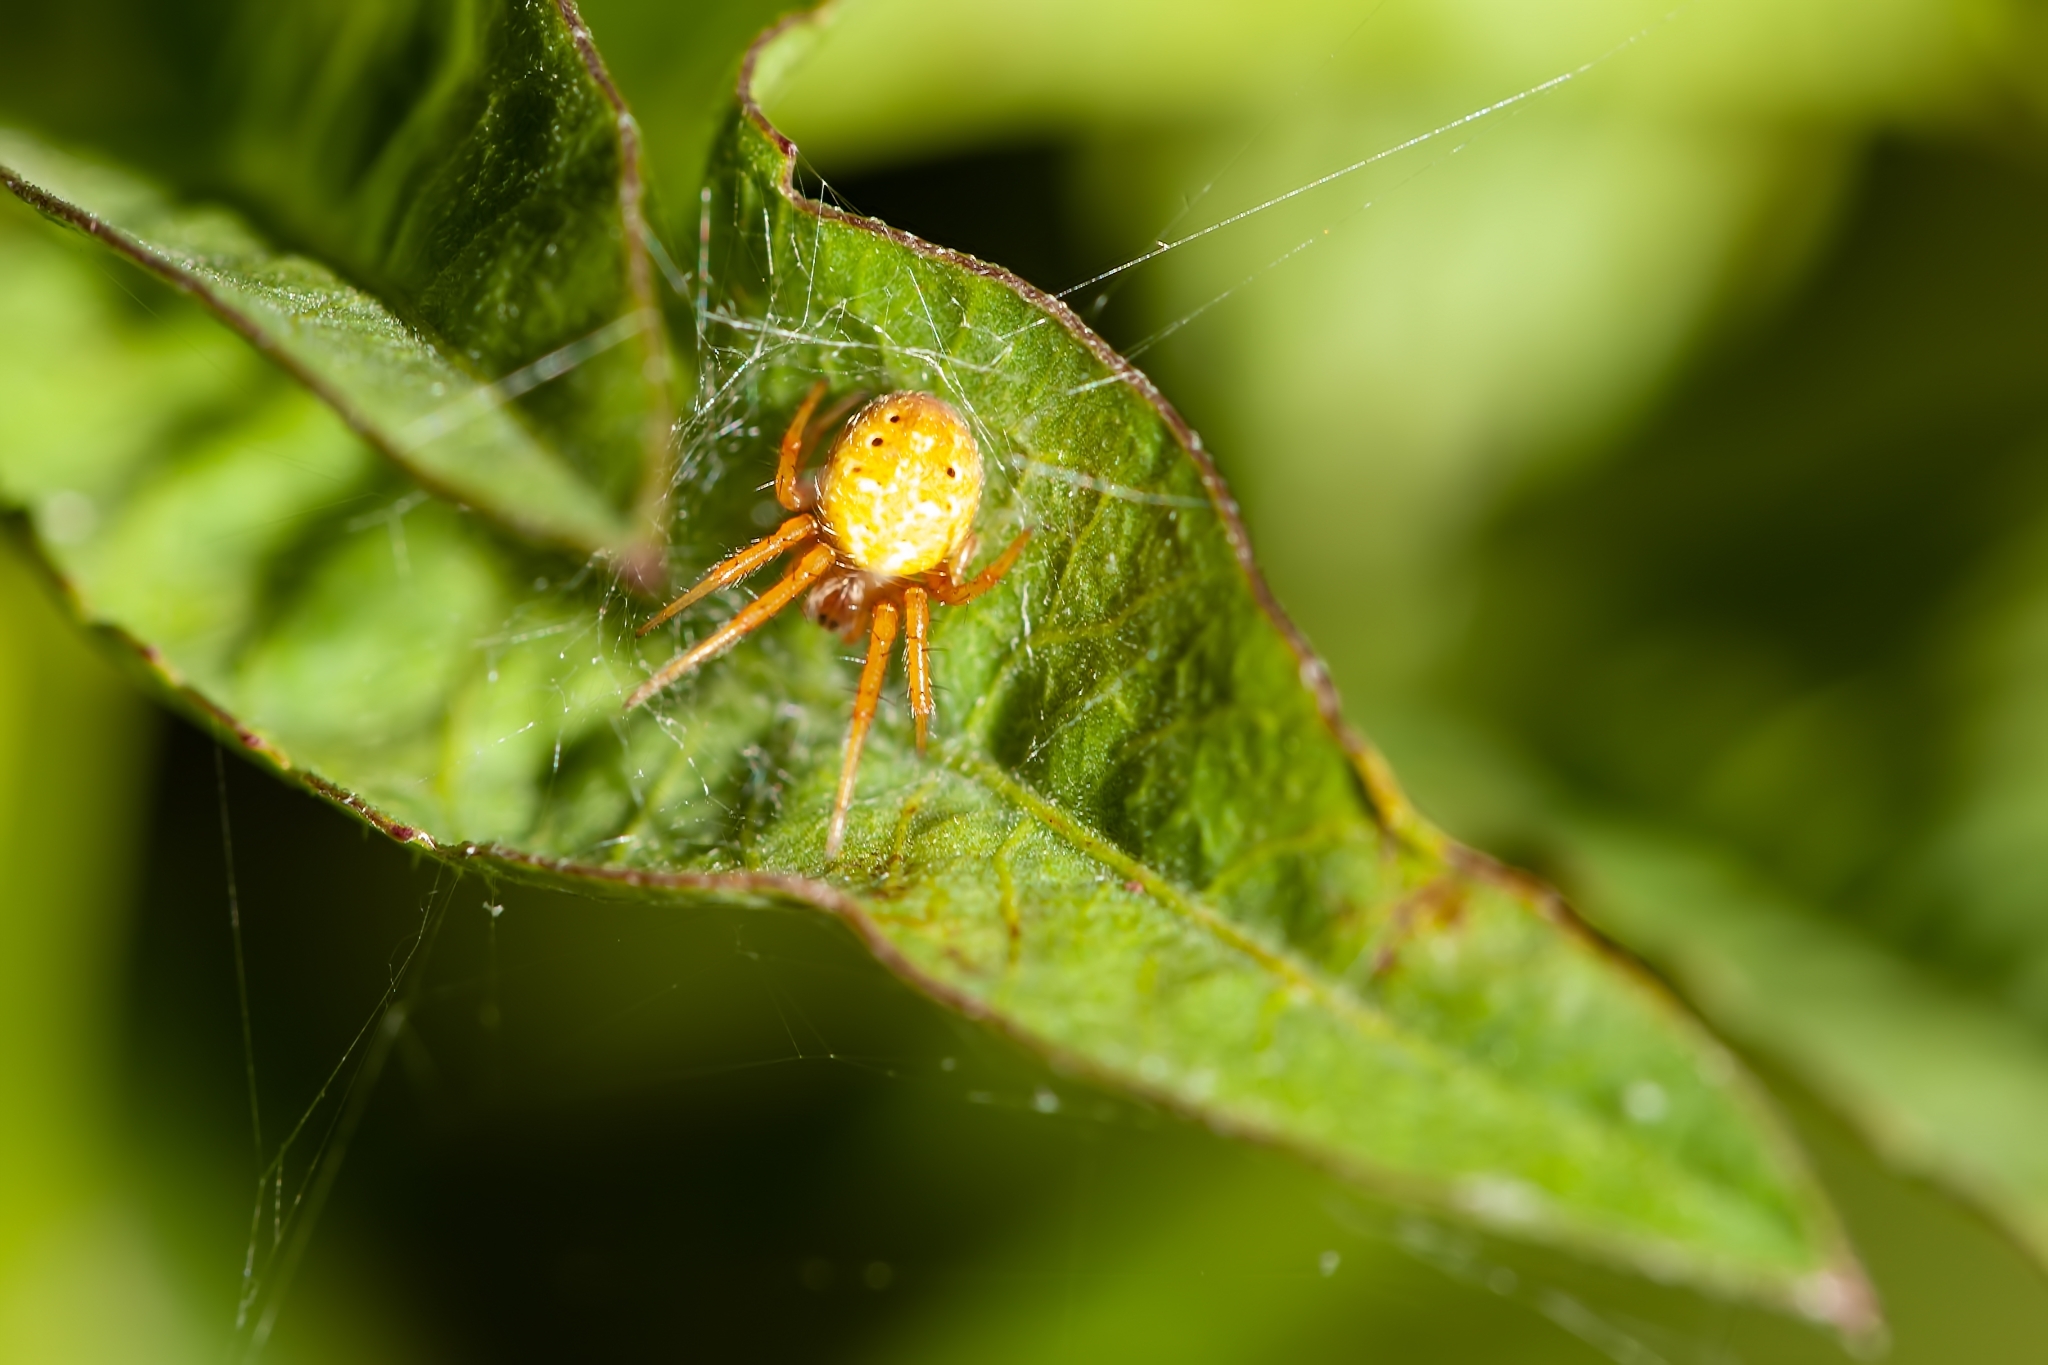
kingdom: Animalia
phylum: Arthropoda
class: Arachnida
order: Araneae
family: Araneidae
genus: Neoscona
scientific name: Neoscona arabesca
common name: Orb weavers
